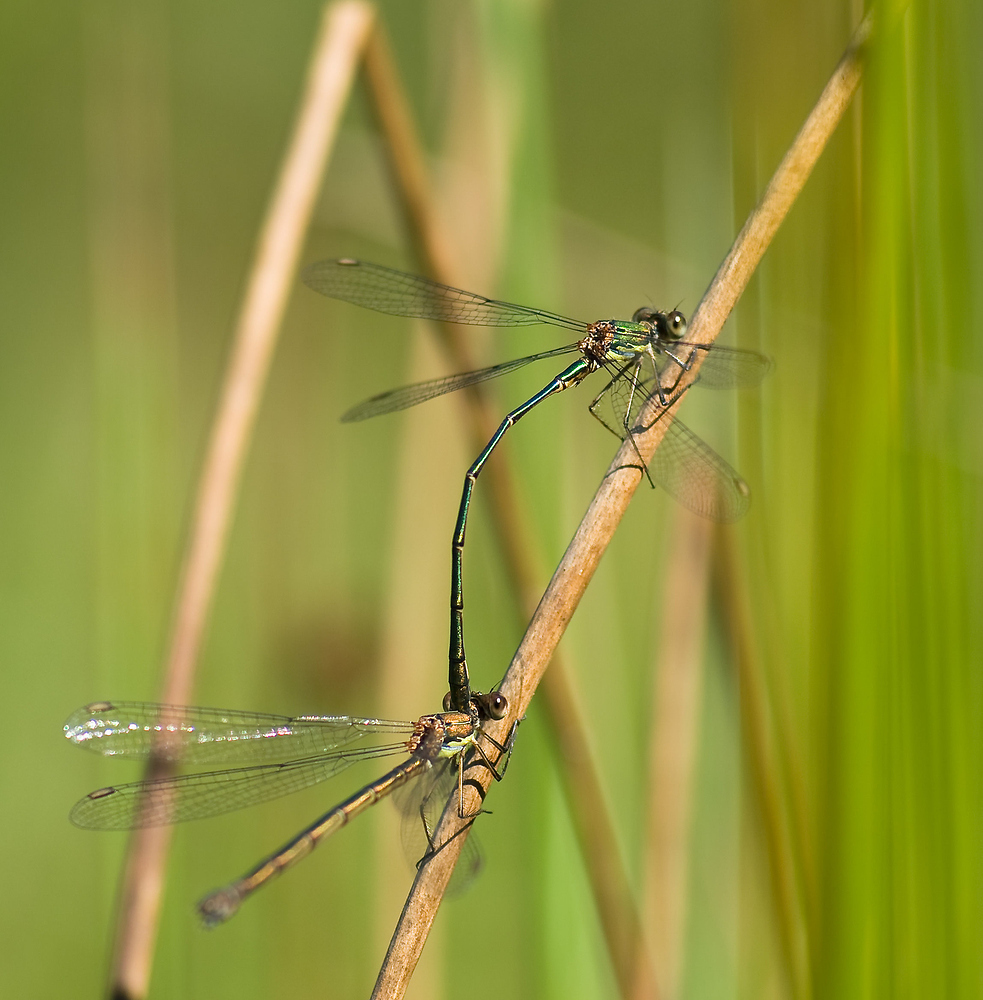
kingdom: Animalia
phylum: Arthropoda
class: Insecta
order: Odonata
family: Lestidae
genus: Chalcolestes
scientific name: Chalcolestes viridis
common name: Green emerald damselfly
